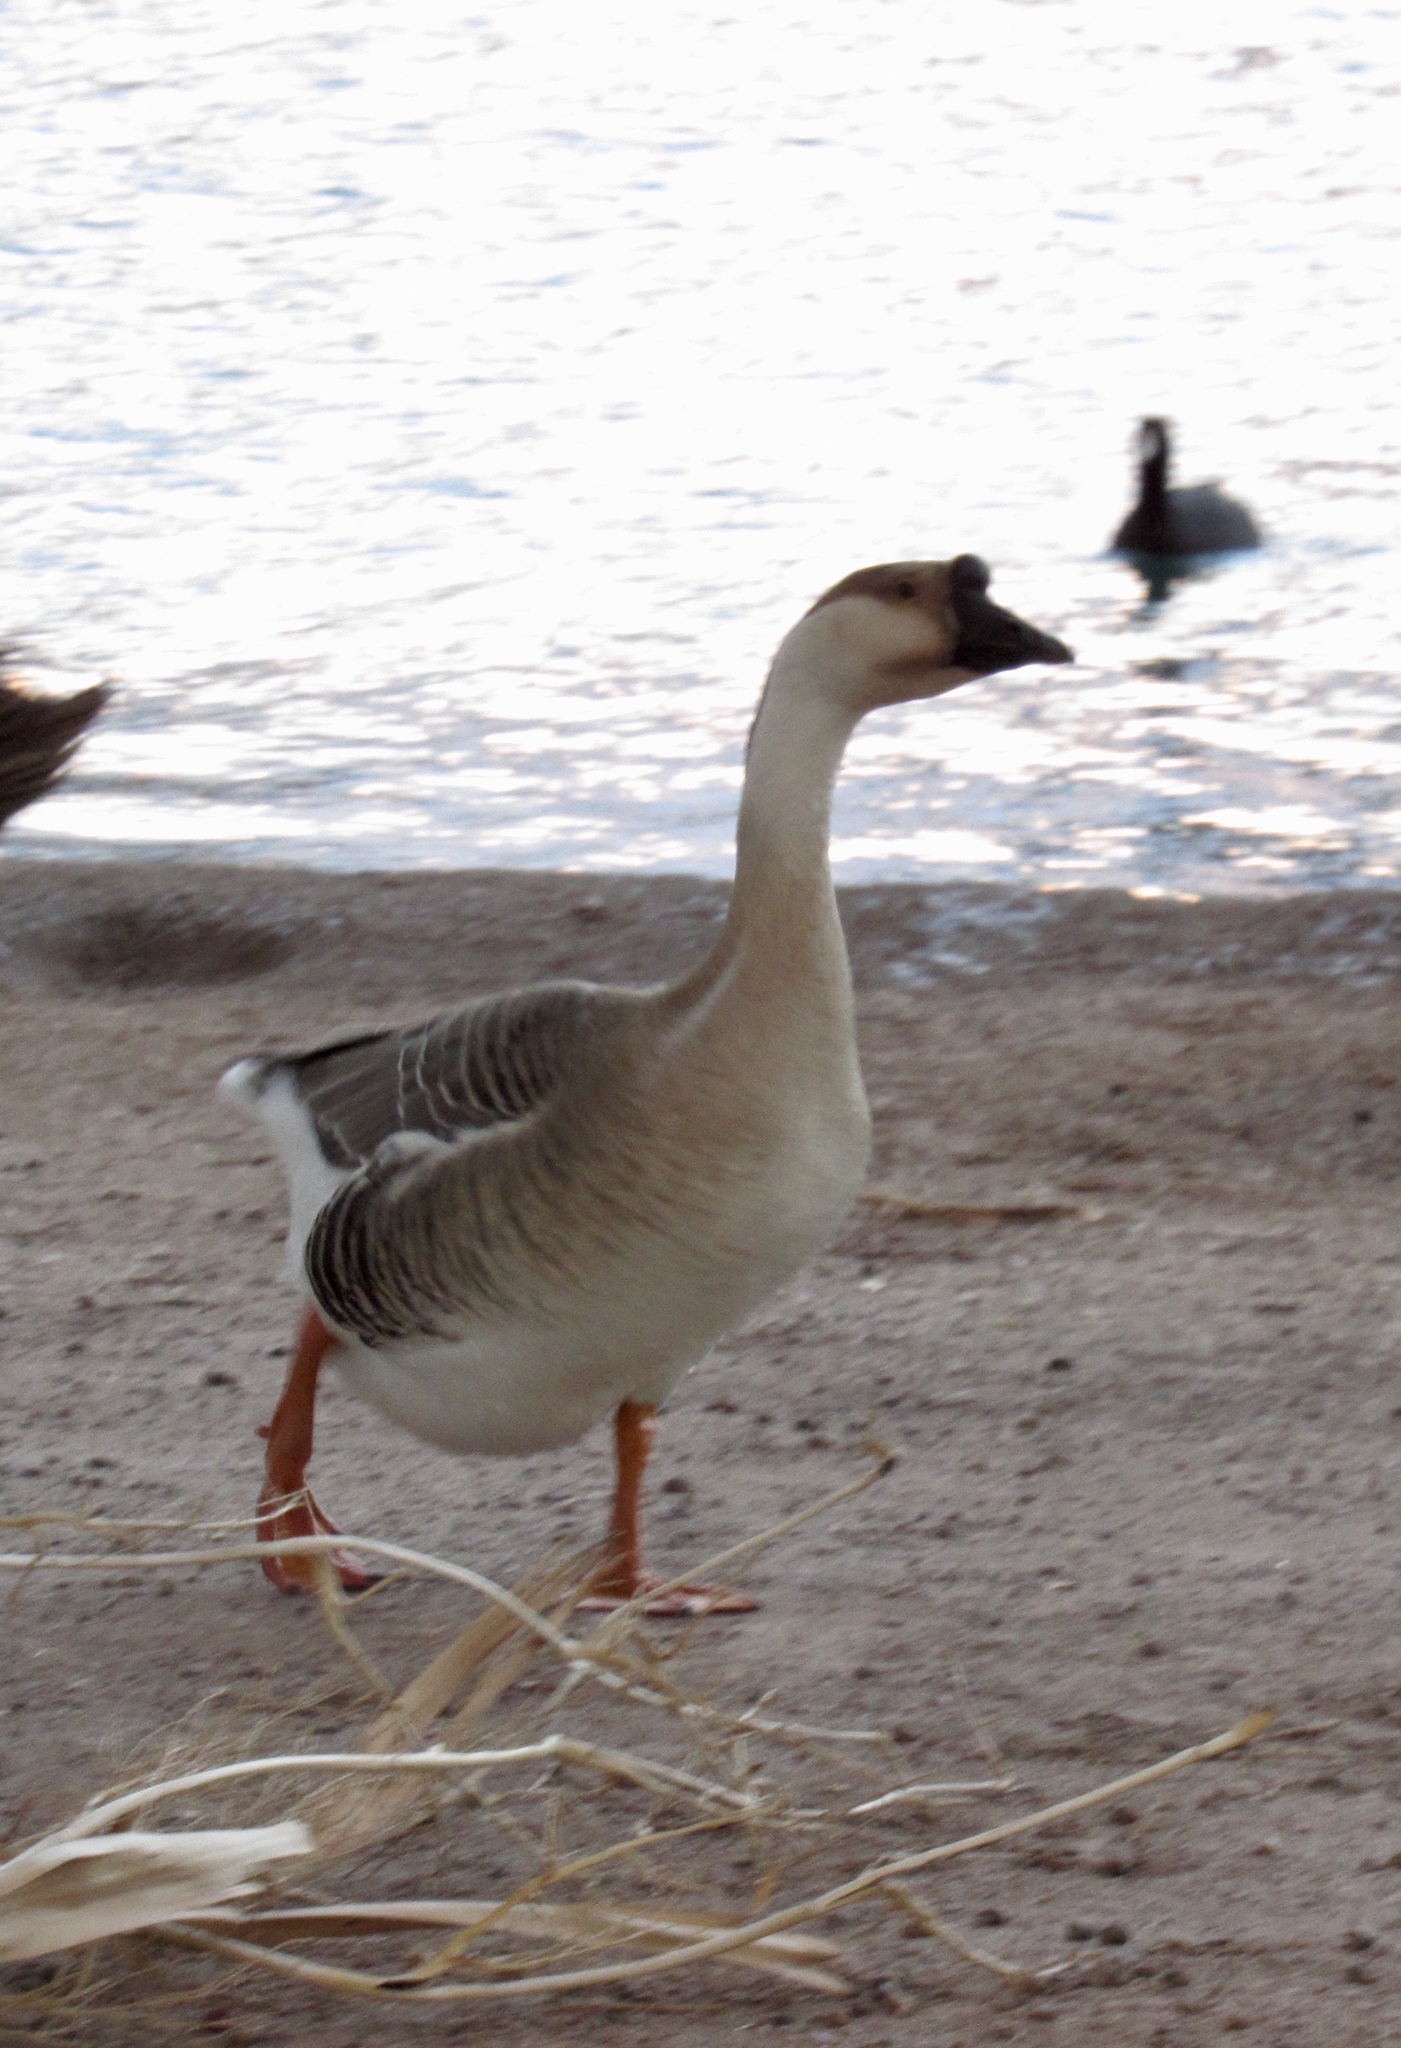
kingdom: Animalia
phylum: Chordata
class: Aves
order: Anseriformes
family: Anatidae
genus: Anser
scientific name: Anser cygnoides
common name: Swan goose
